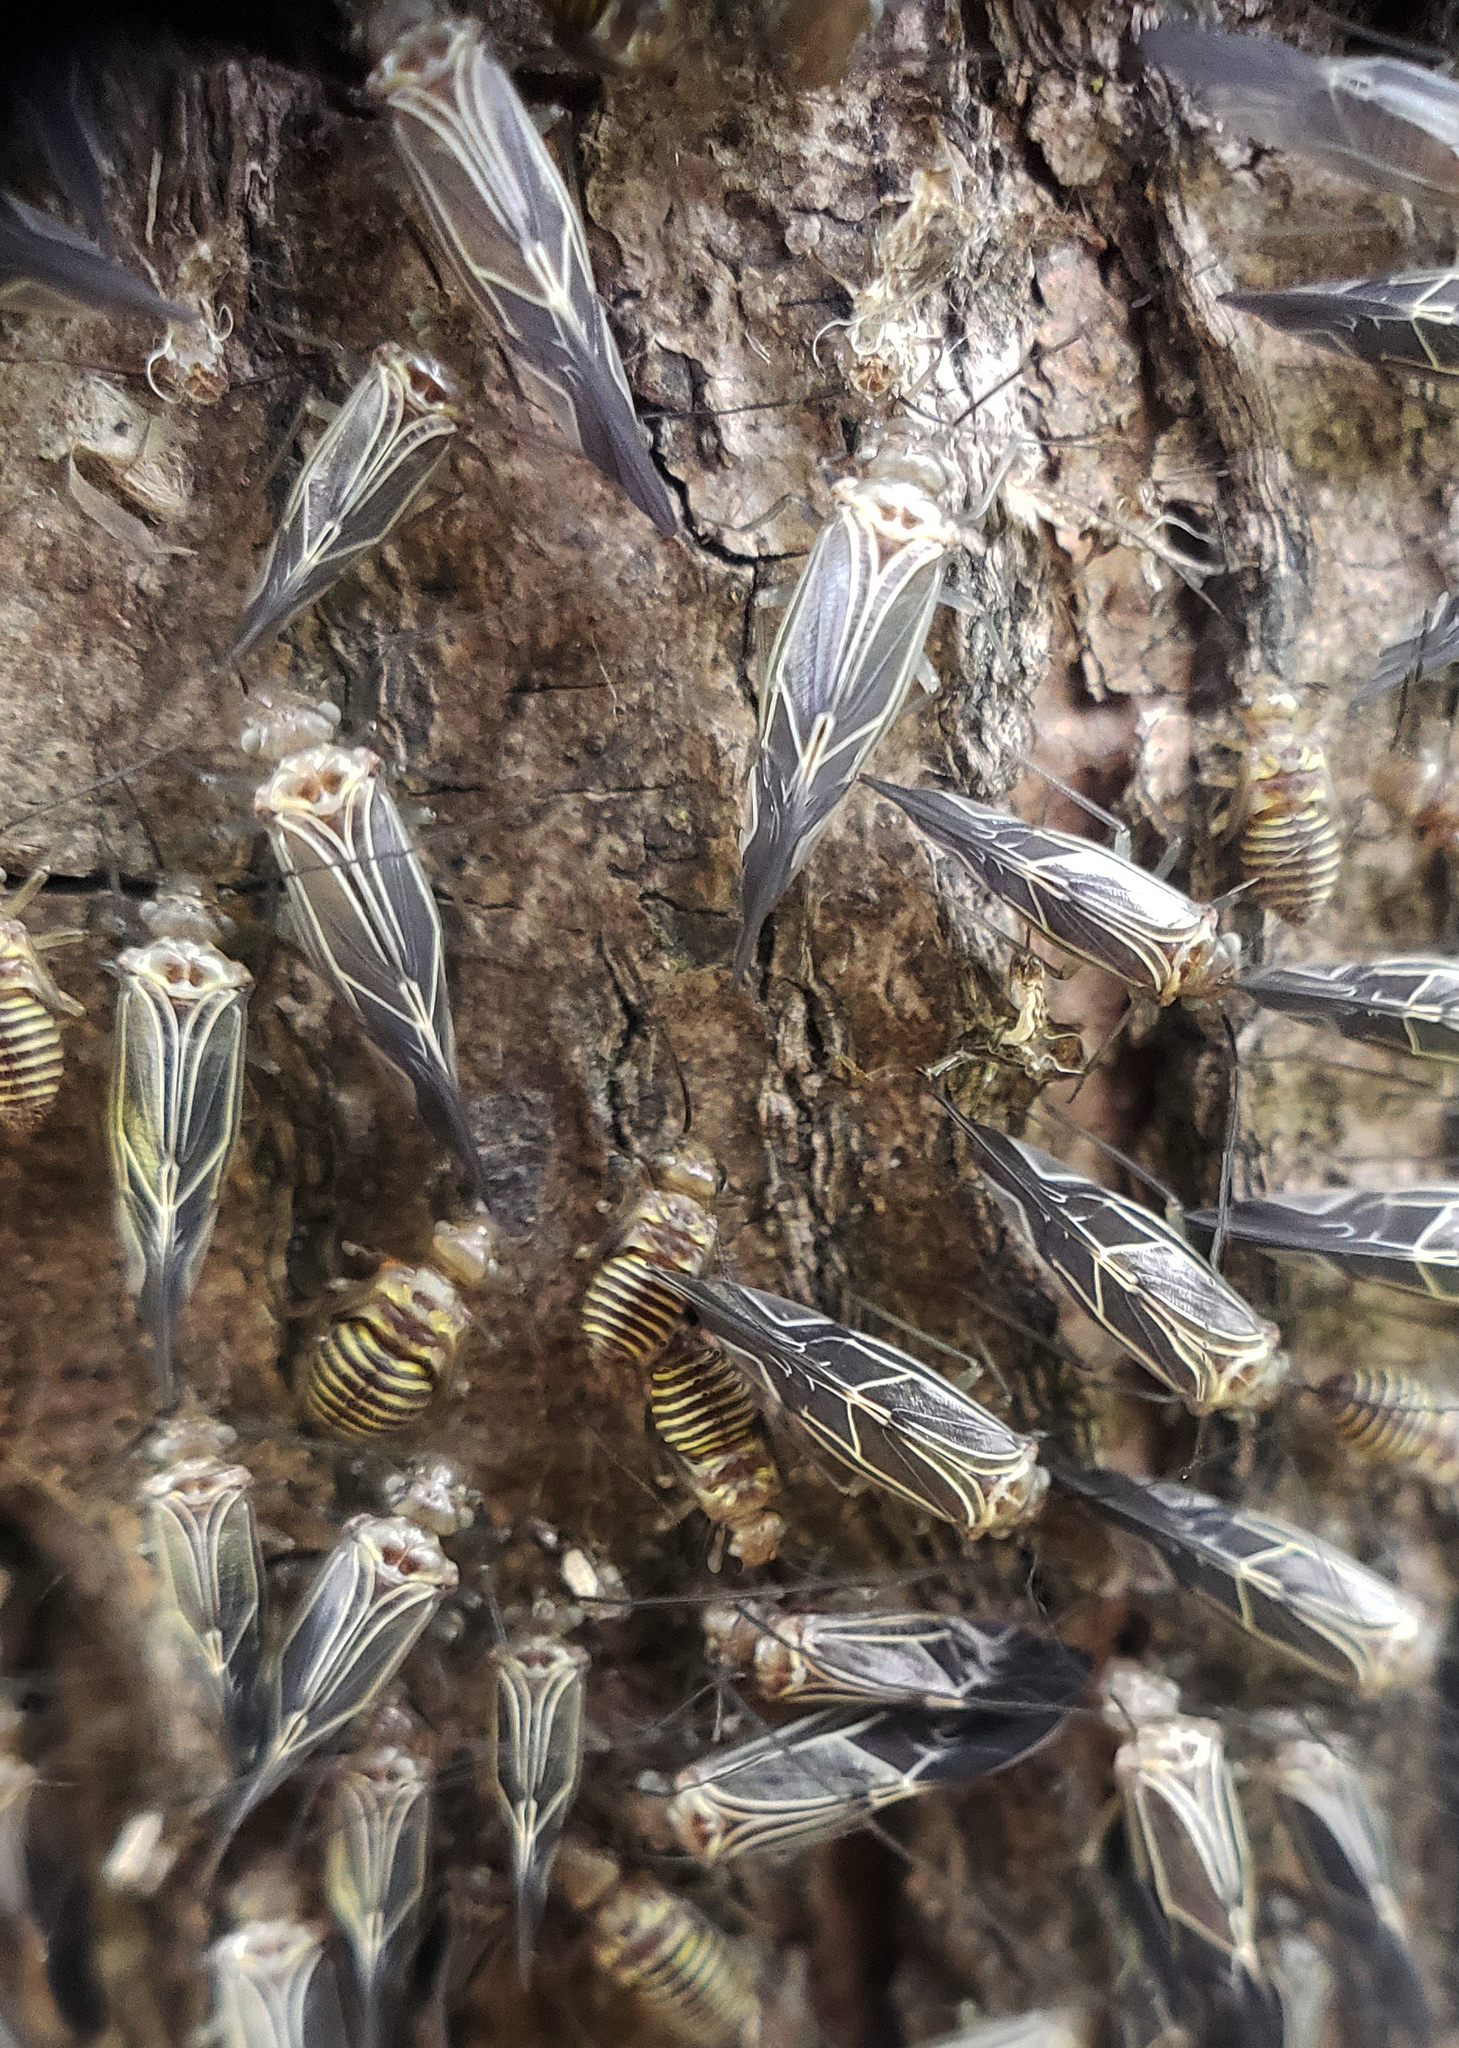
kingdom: Animalia
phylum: Arthropoda
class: Insecta
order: Psocodea
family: Psocidae
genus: Cerastipsocus
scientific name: Cerastipsocus venosus
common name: Tree cattle
